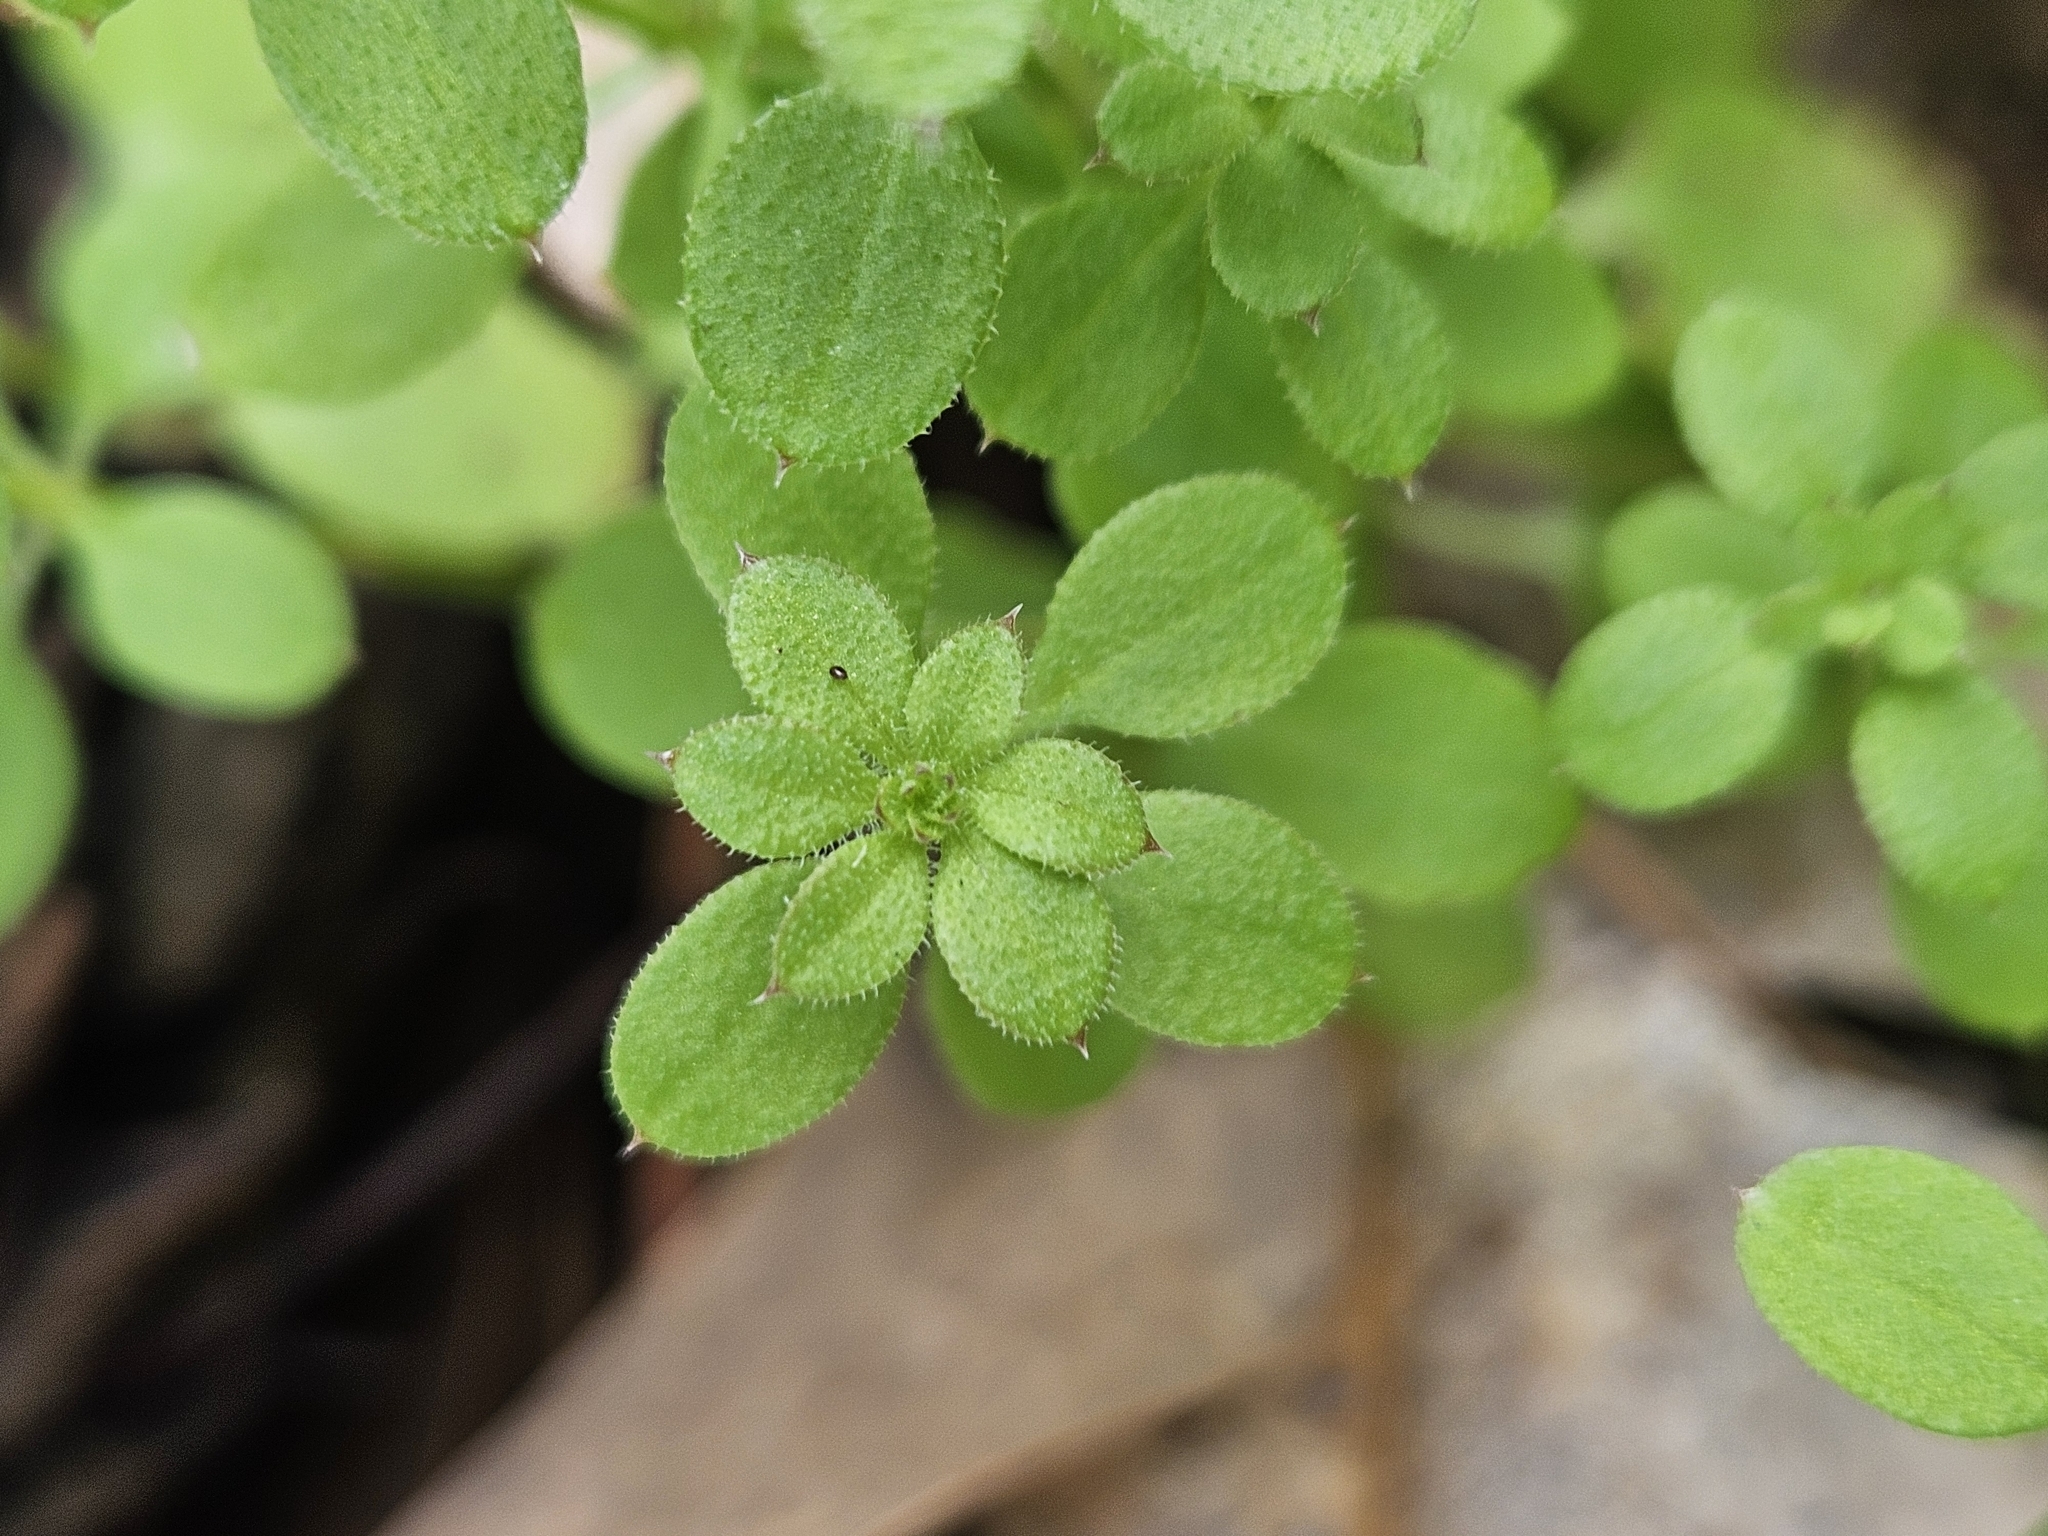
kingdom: Plantae
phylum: Tracheophyta
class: Magnoliopsida
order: Gentianales
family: Rubiaceae
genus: Galium
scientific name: Galium aparine
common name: Cleavers
